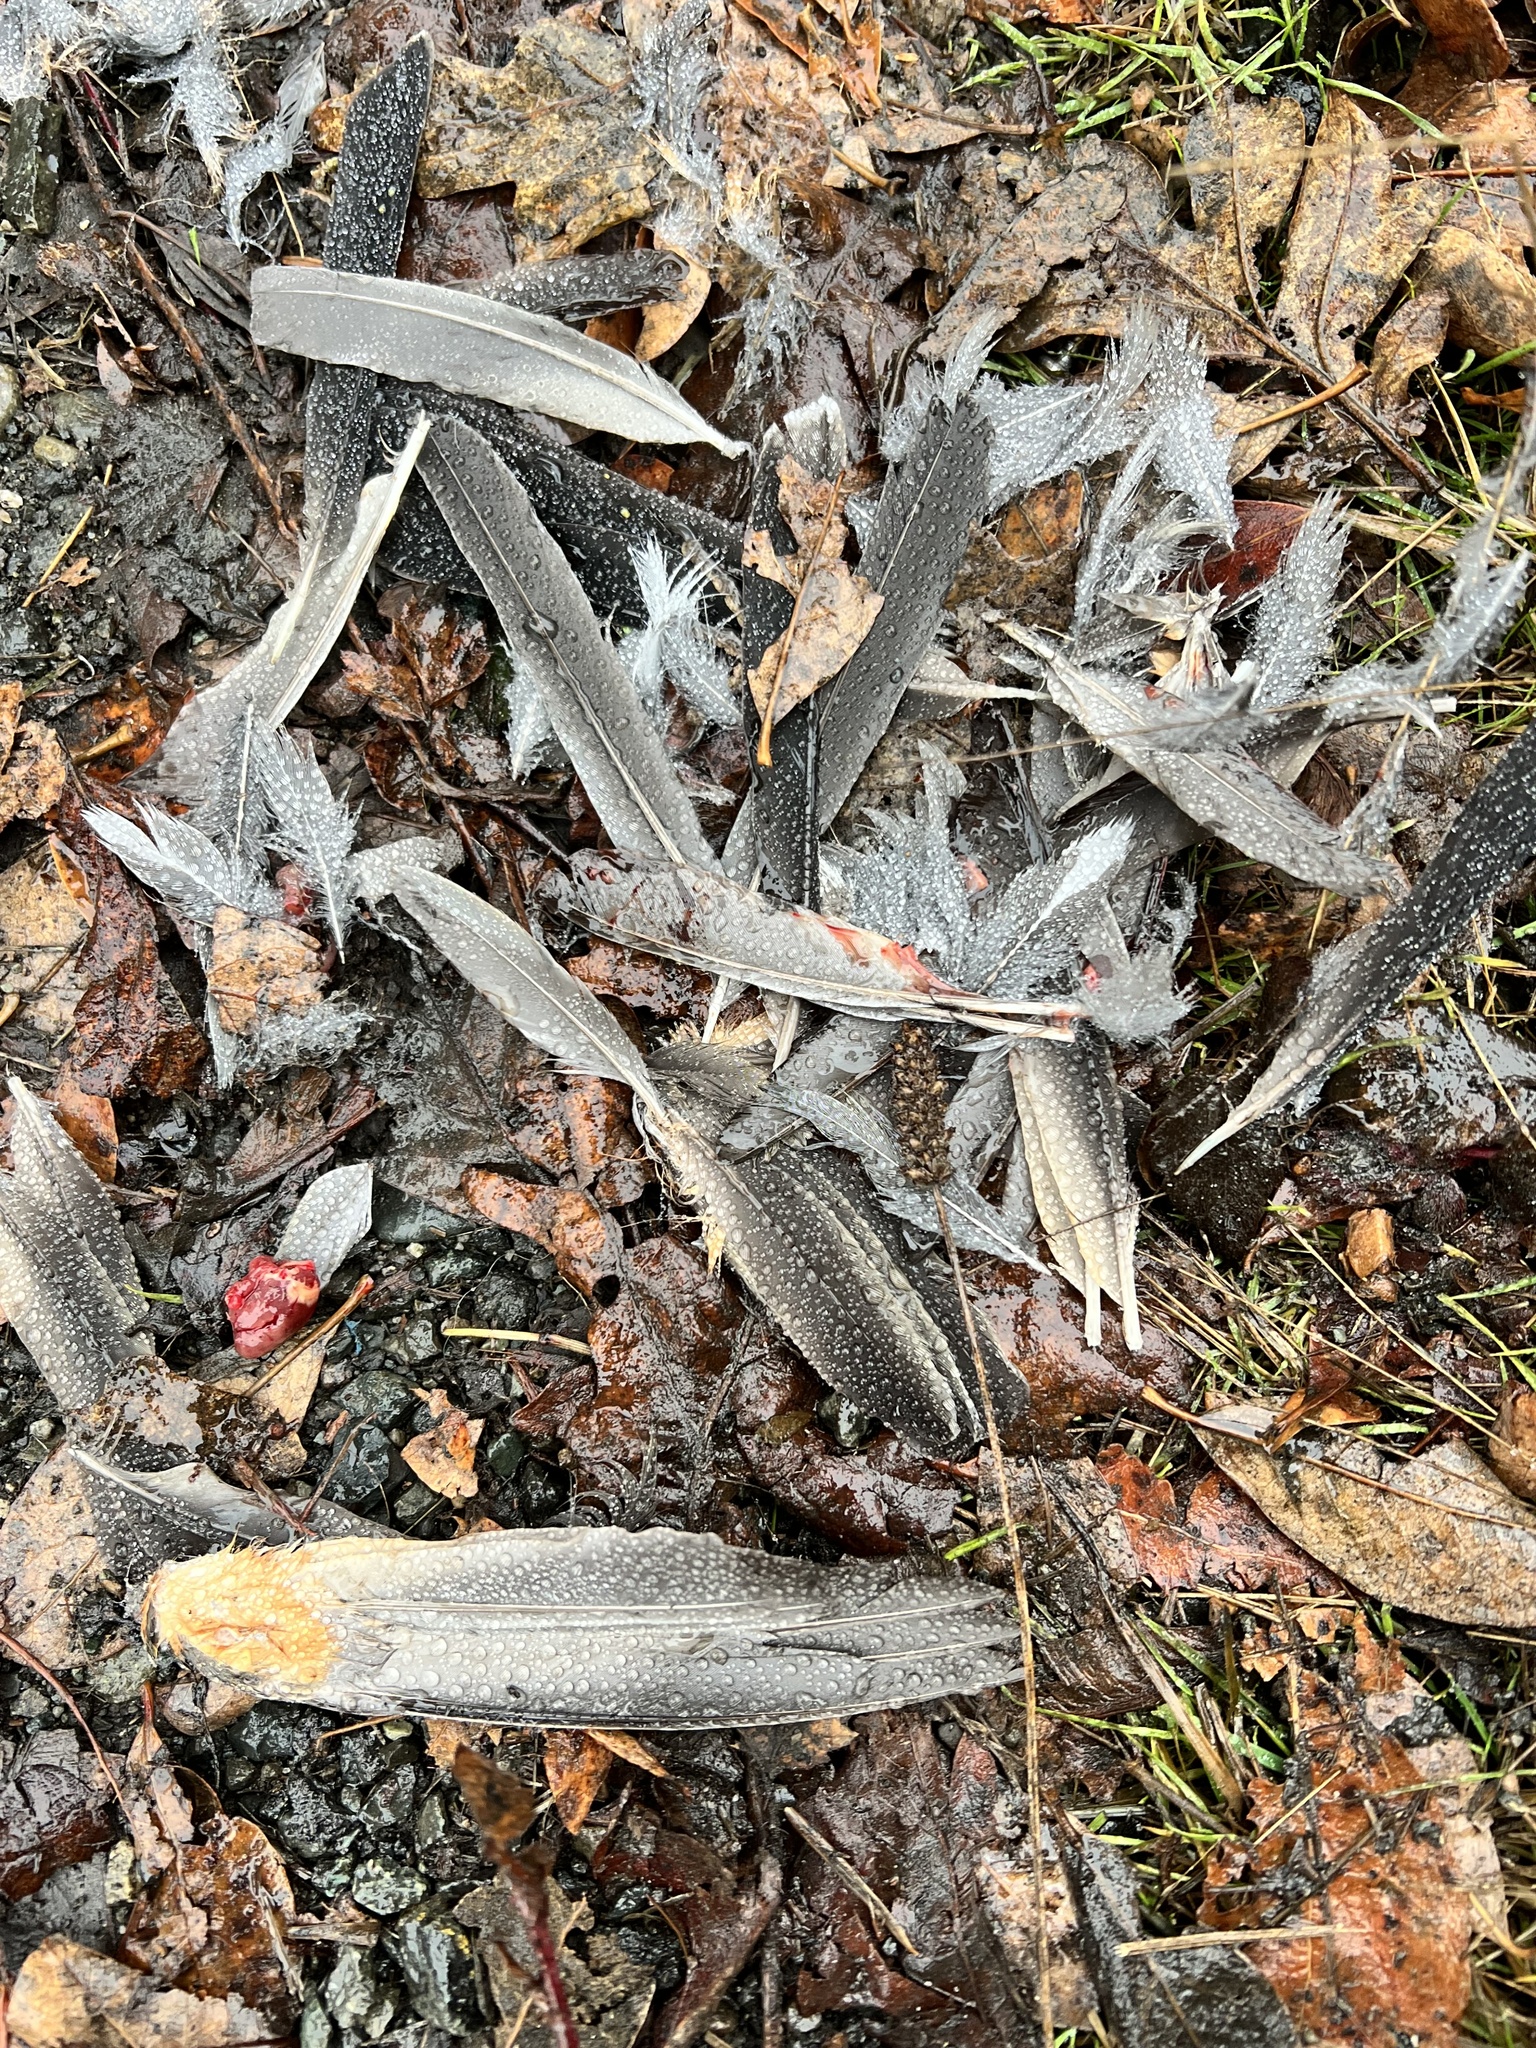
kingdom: Animalia
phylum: Chordata
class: Aves
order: Passeriformes
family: Turdidae
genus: Turdus
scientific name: Turdus migratorius
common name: American robin
